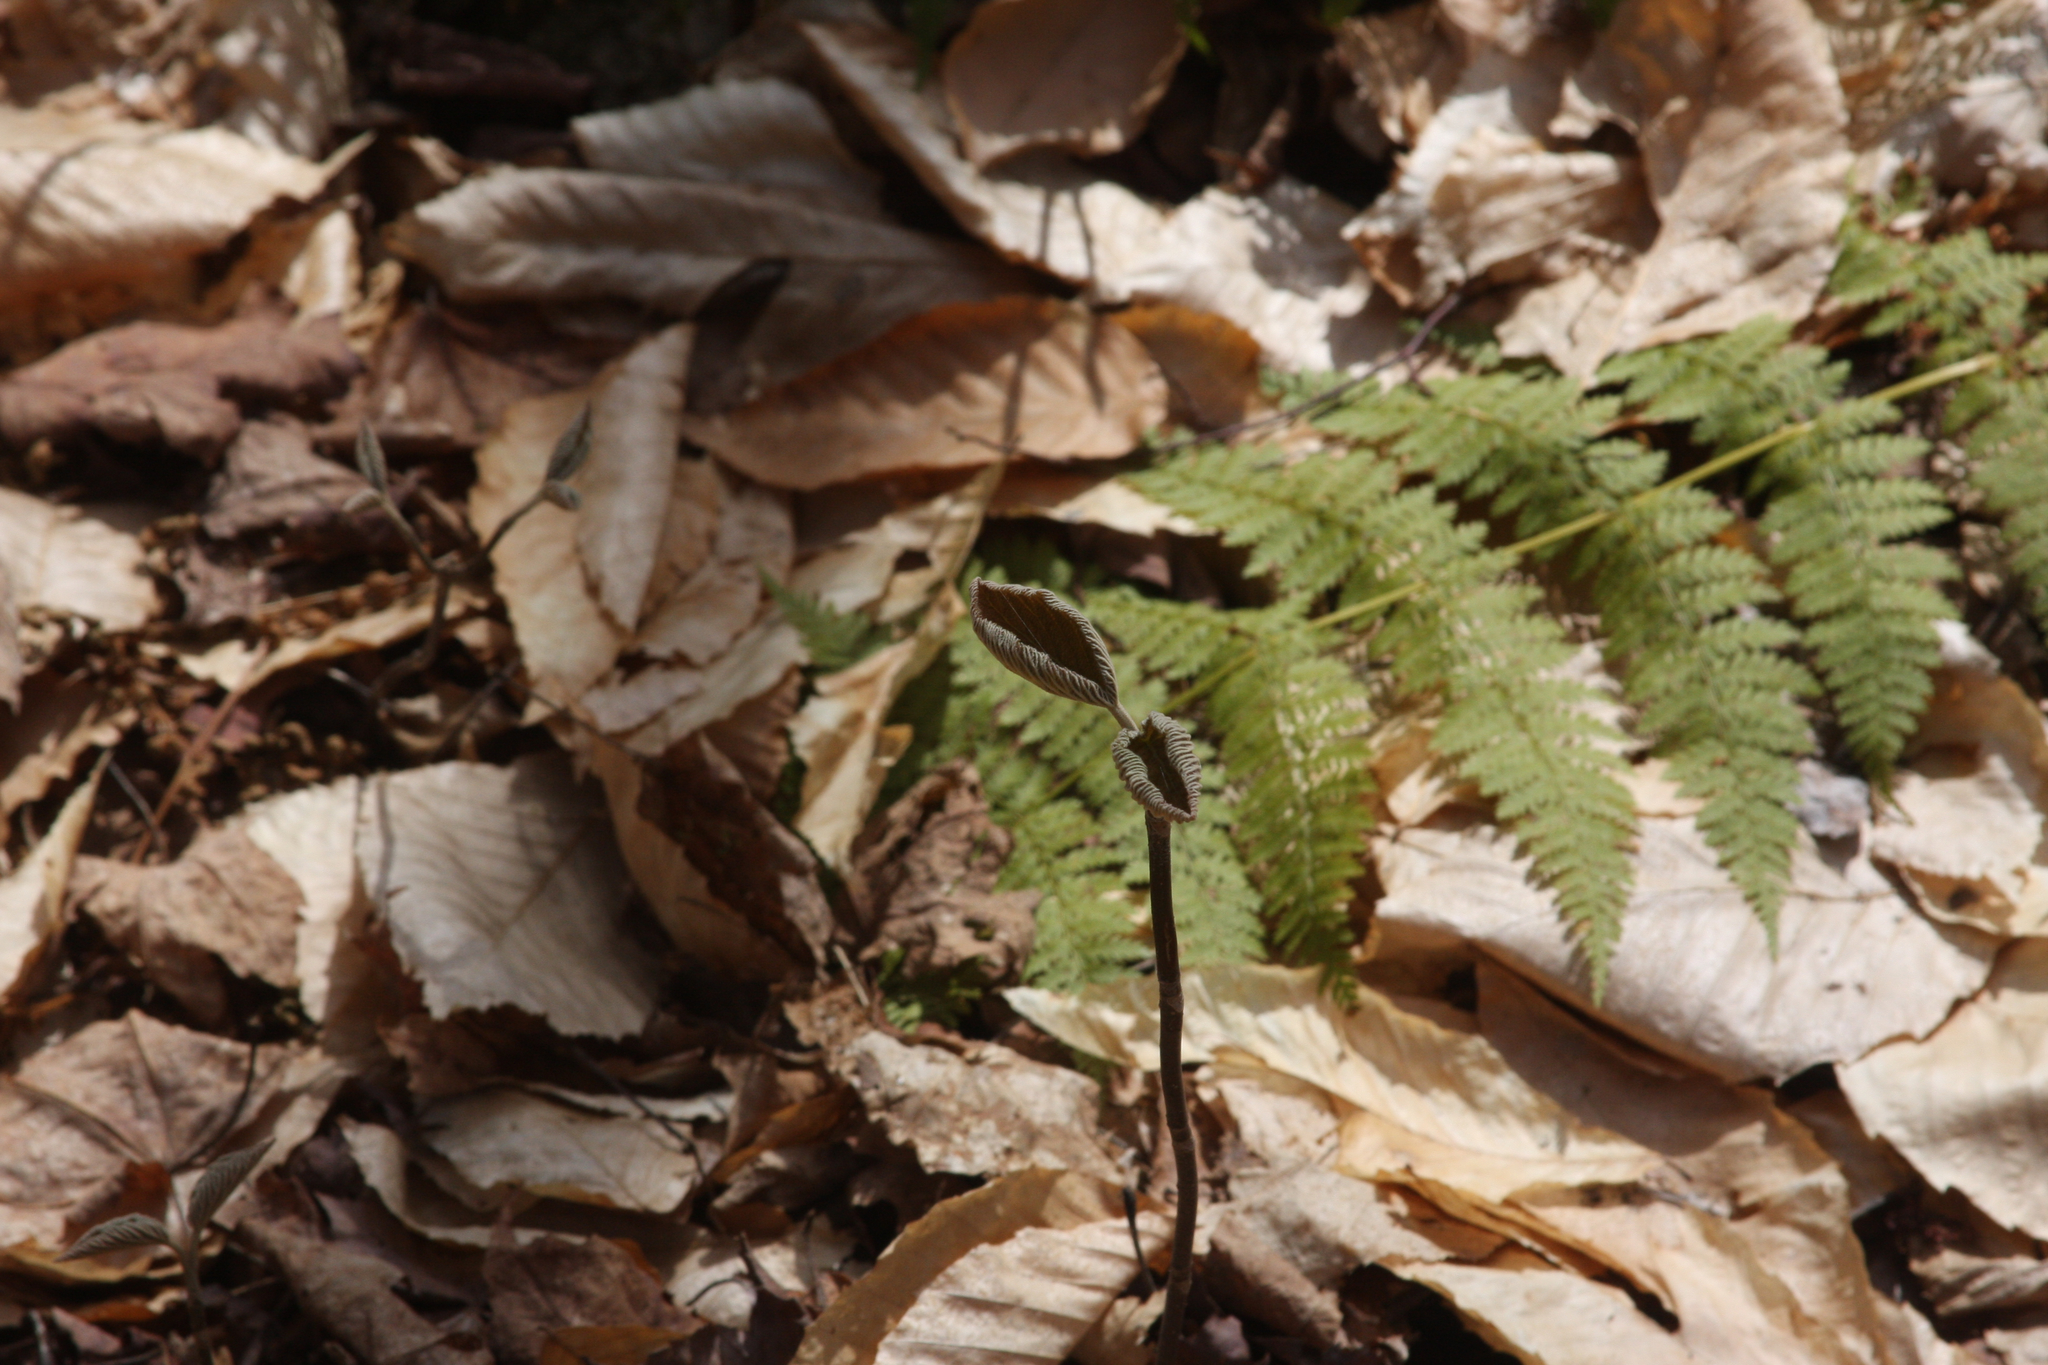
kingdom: Plantae
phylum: Tracheophyta
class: Magnoliopsida
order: Dipsacales
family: Viburnaceae
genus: Viburnum
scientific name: Viburnum lantanoides
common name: Hobblebush
